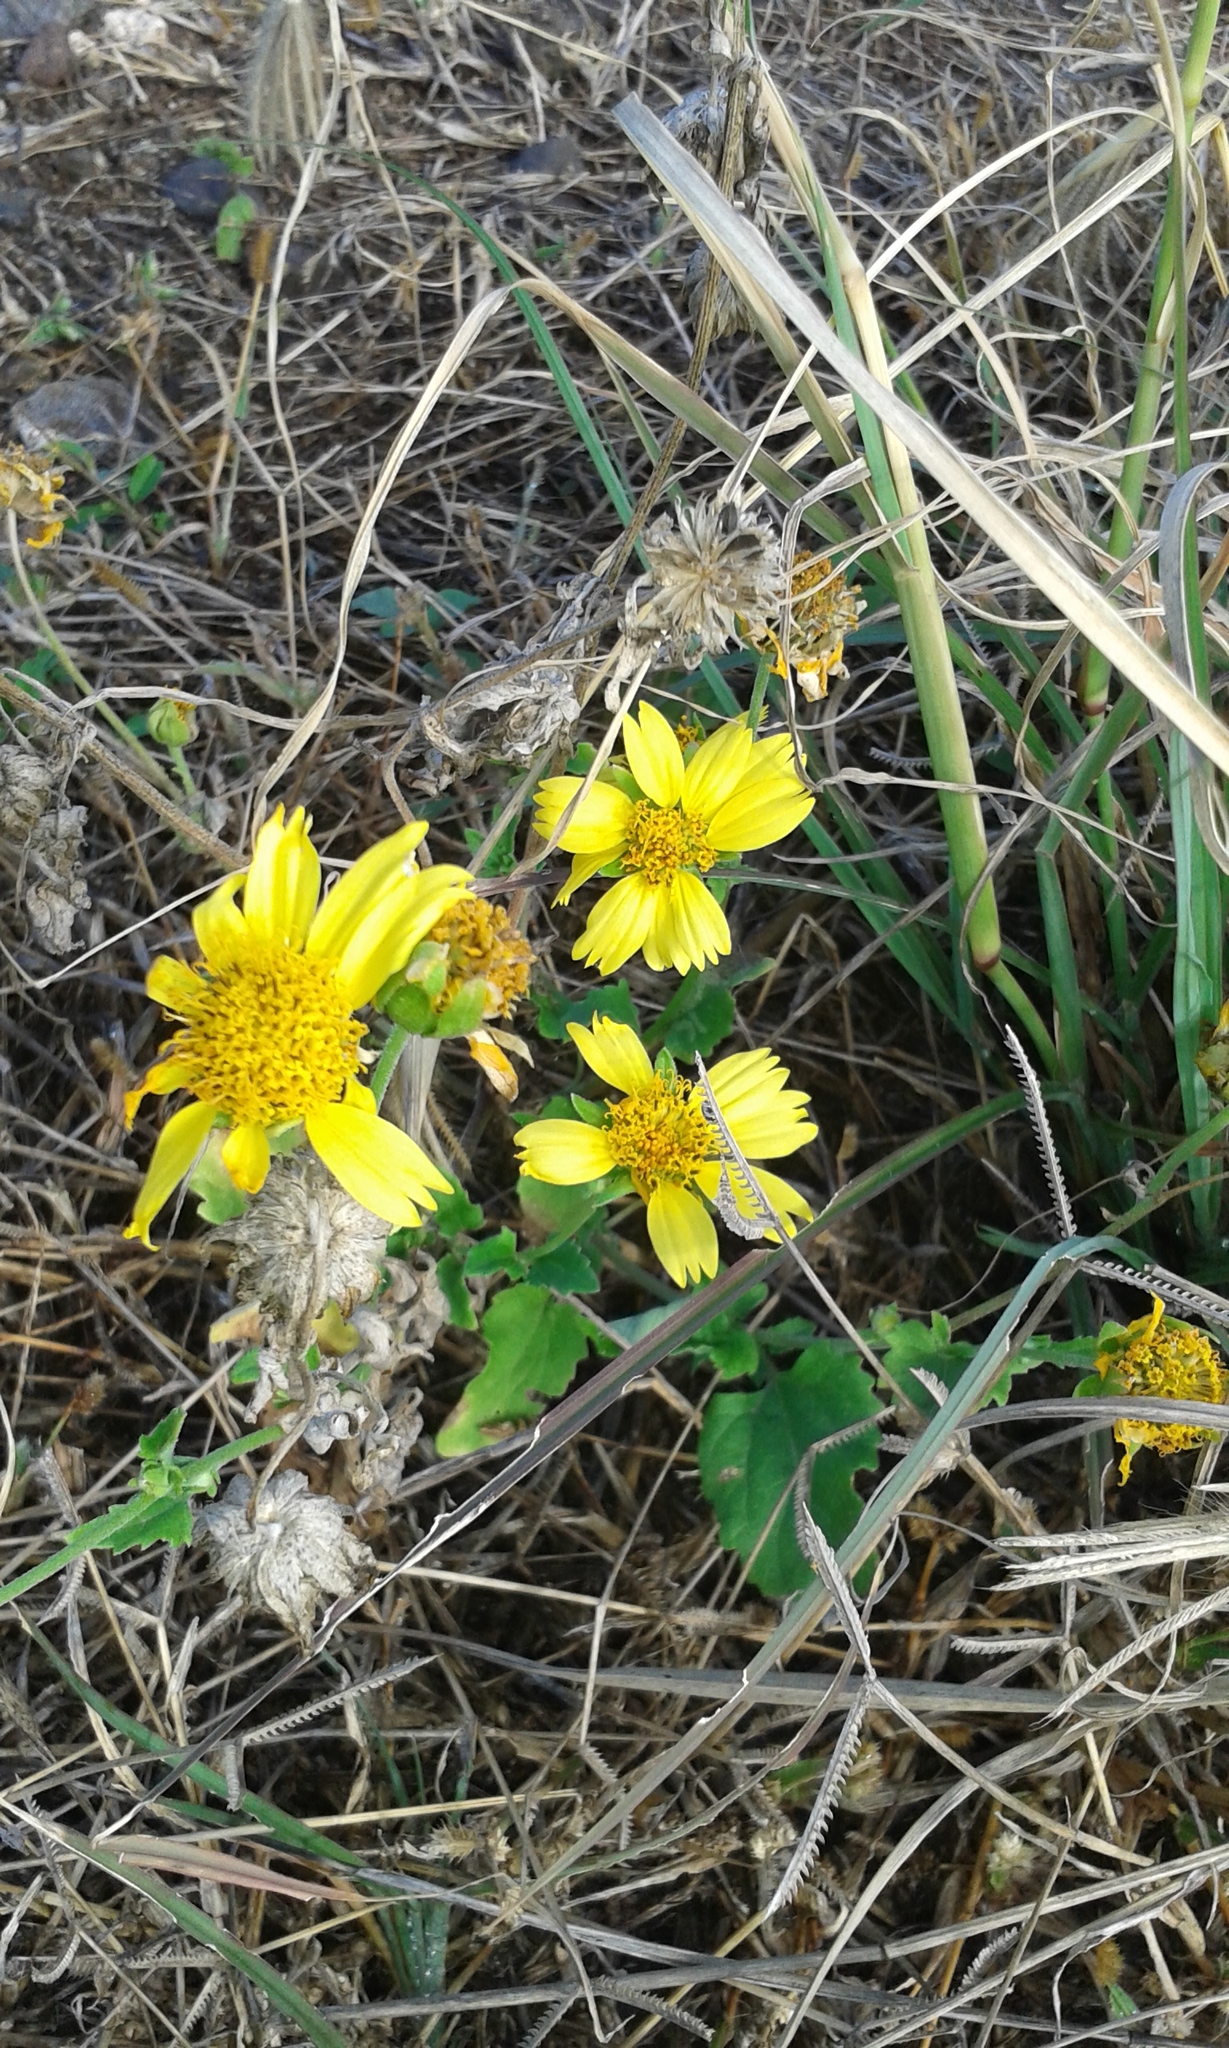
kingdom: Plantae
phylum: Tracheophyta
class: Magnoliopsida
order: Asterales
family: Asteraceae
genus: Verbesina
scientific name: Verbesina encelioides
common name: Golden crownbeard
